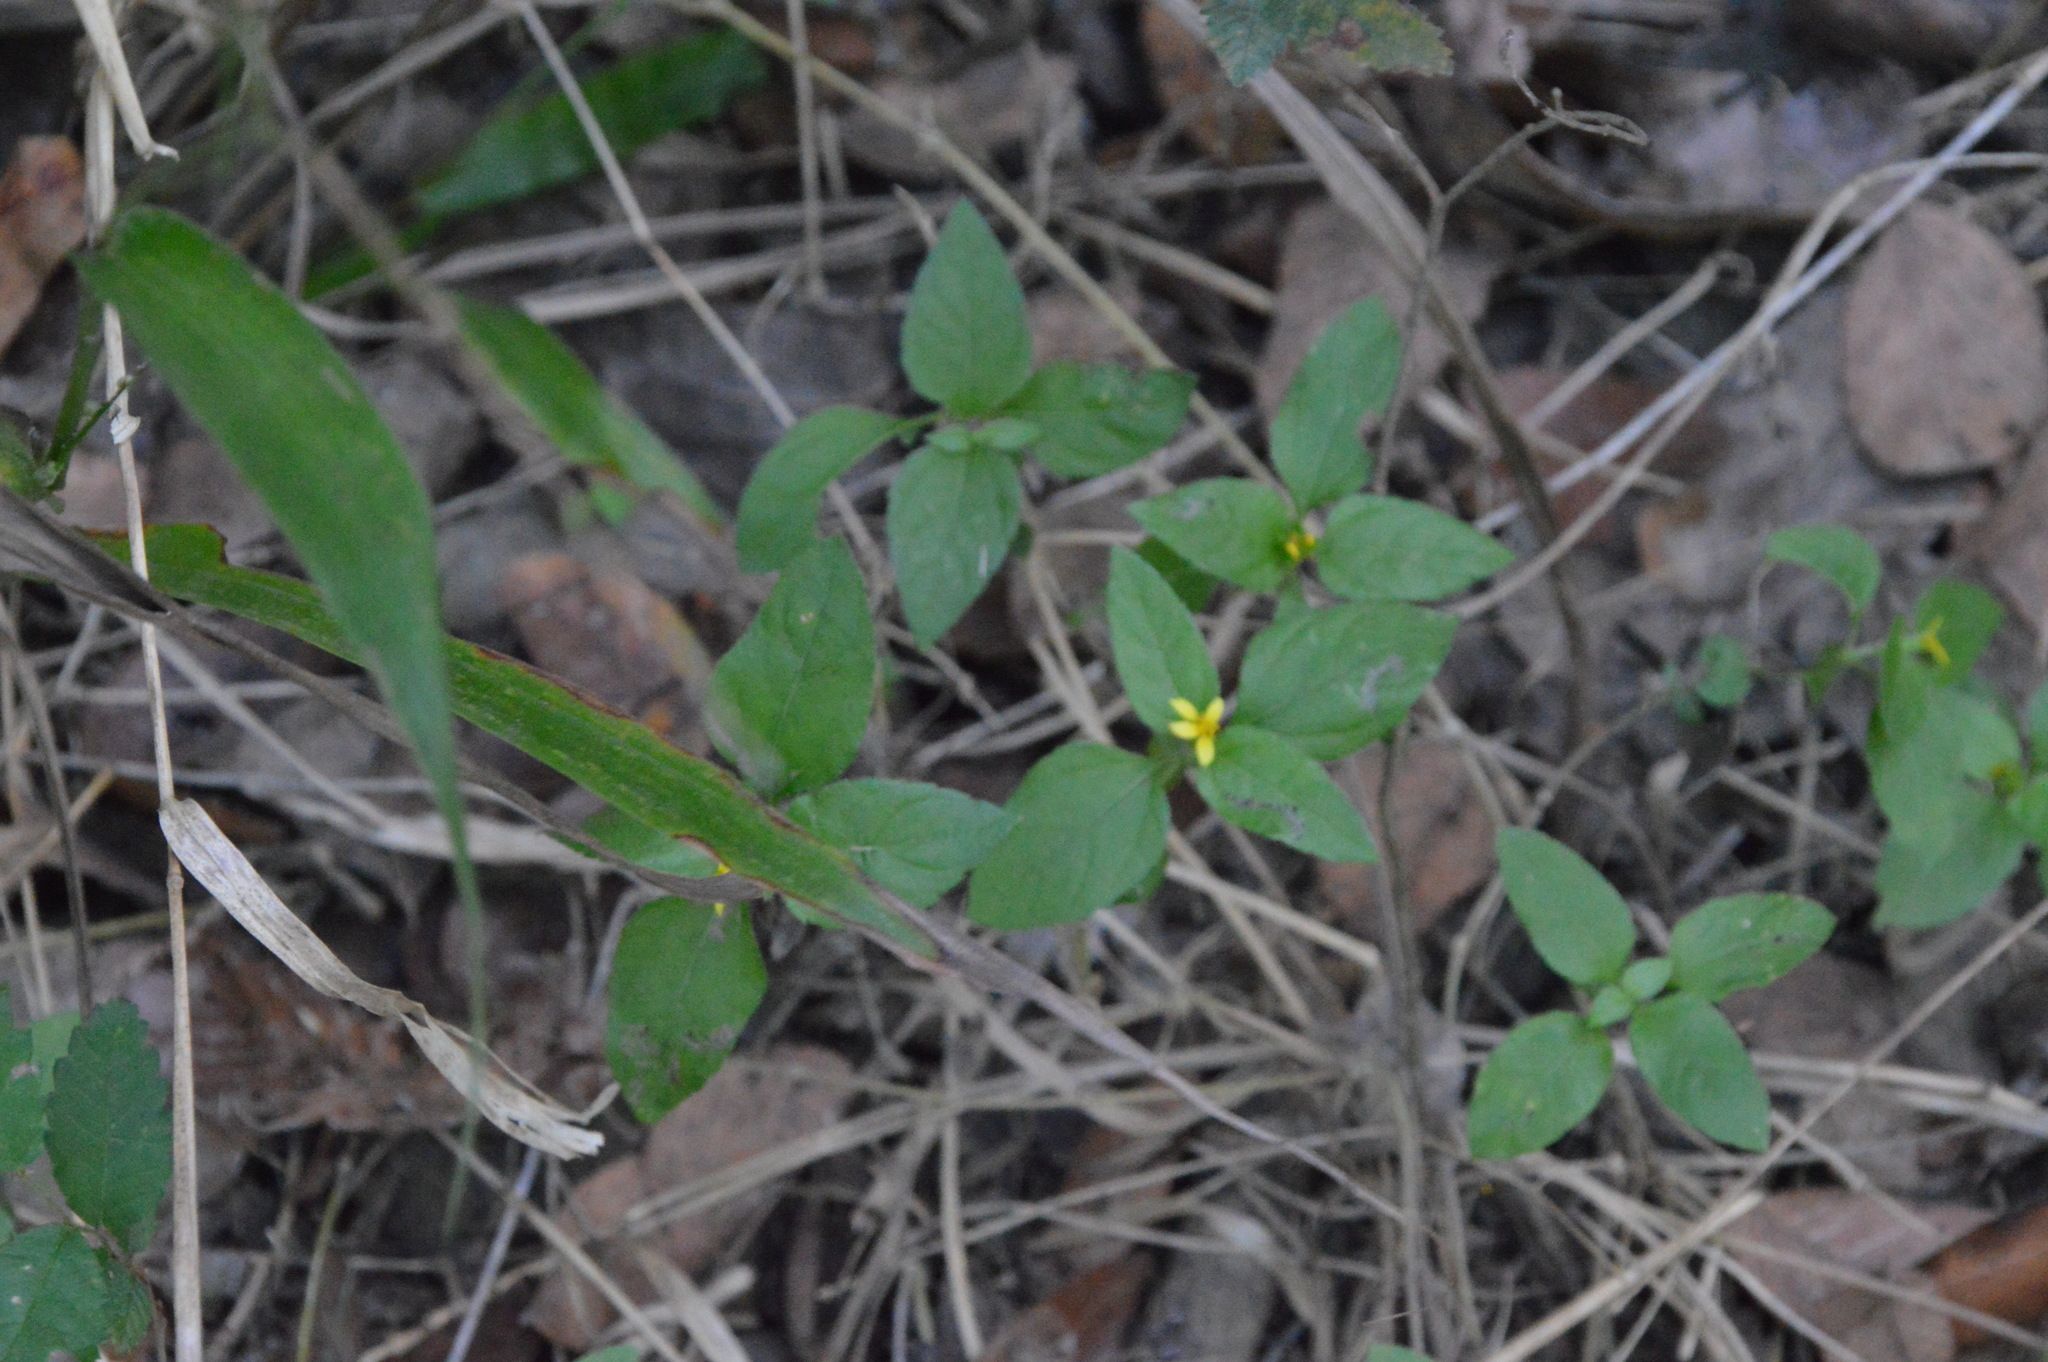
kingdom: Plantae
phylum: Tracheophyta
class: Magnoliopsida
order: Asterales
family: Asteraceae
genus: Calyptocarpus
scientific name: Calyptocarpus vialis
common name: Straggler daisy
